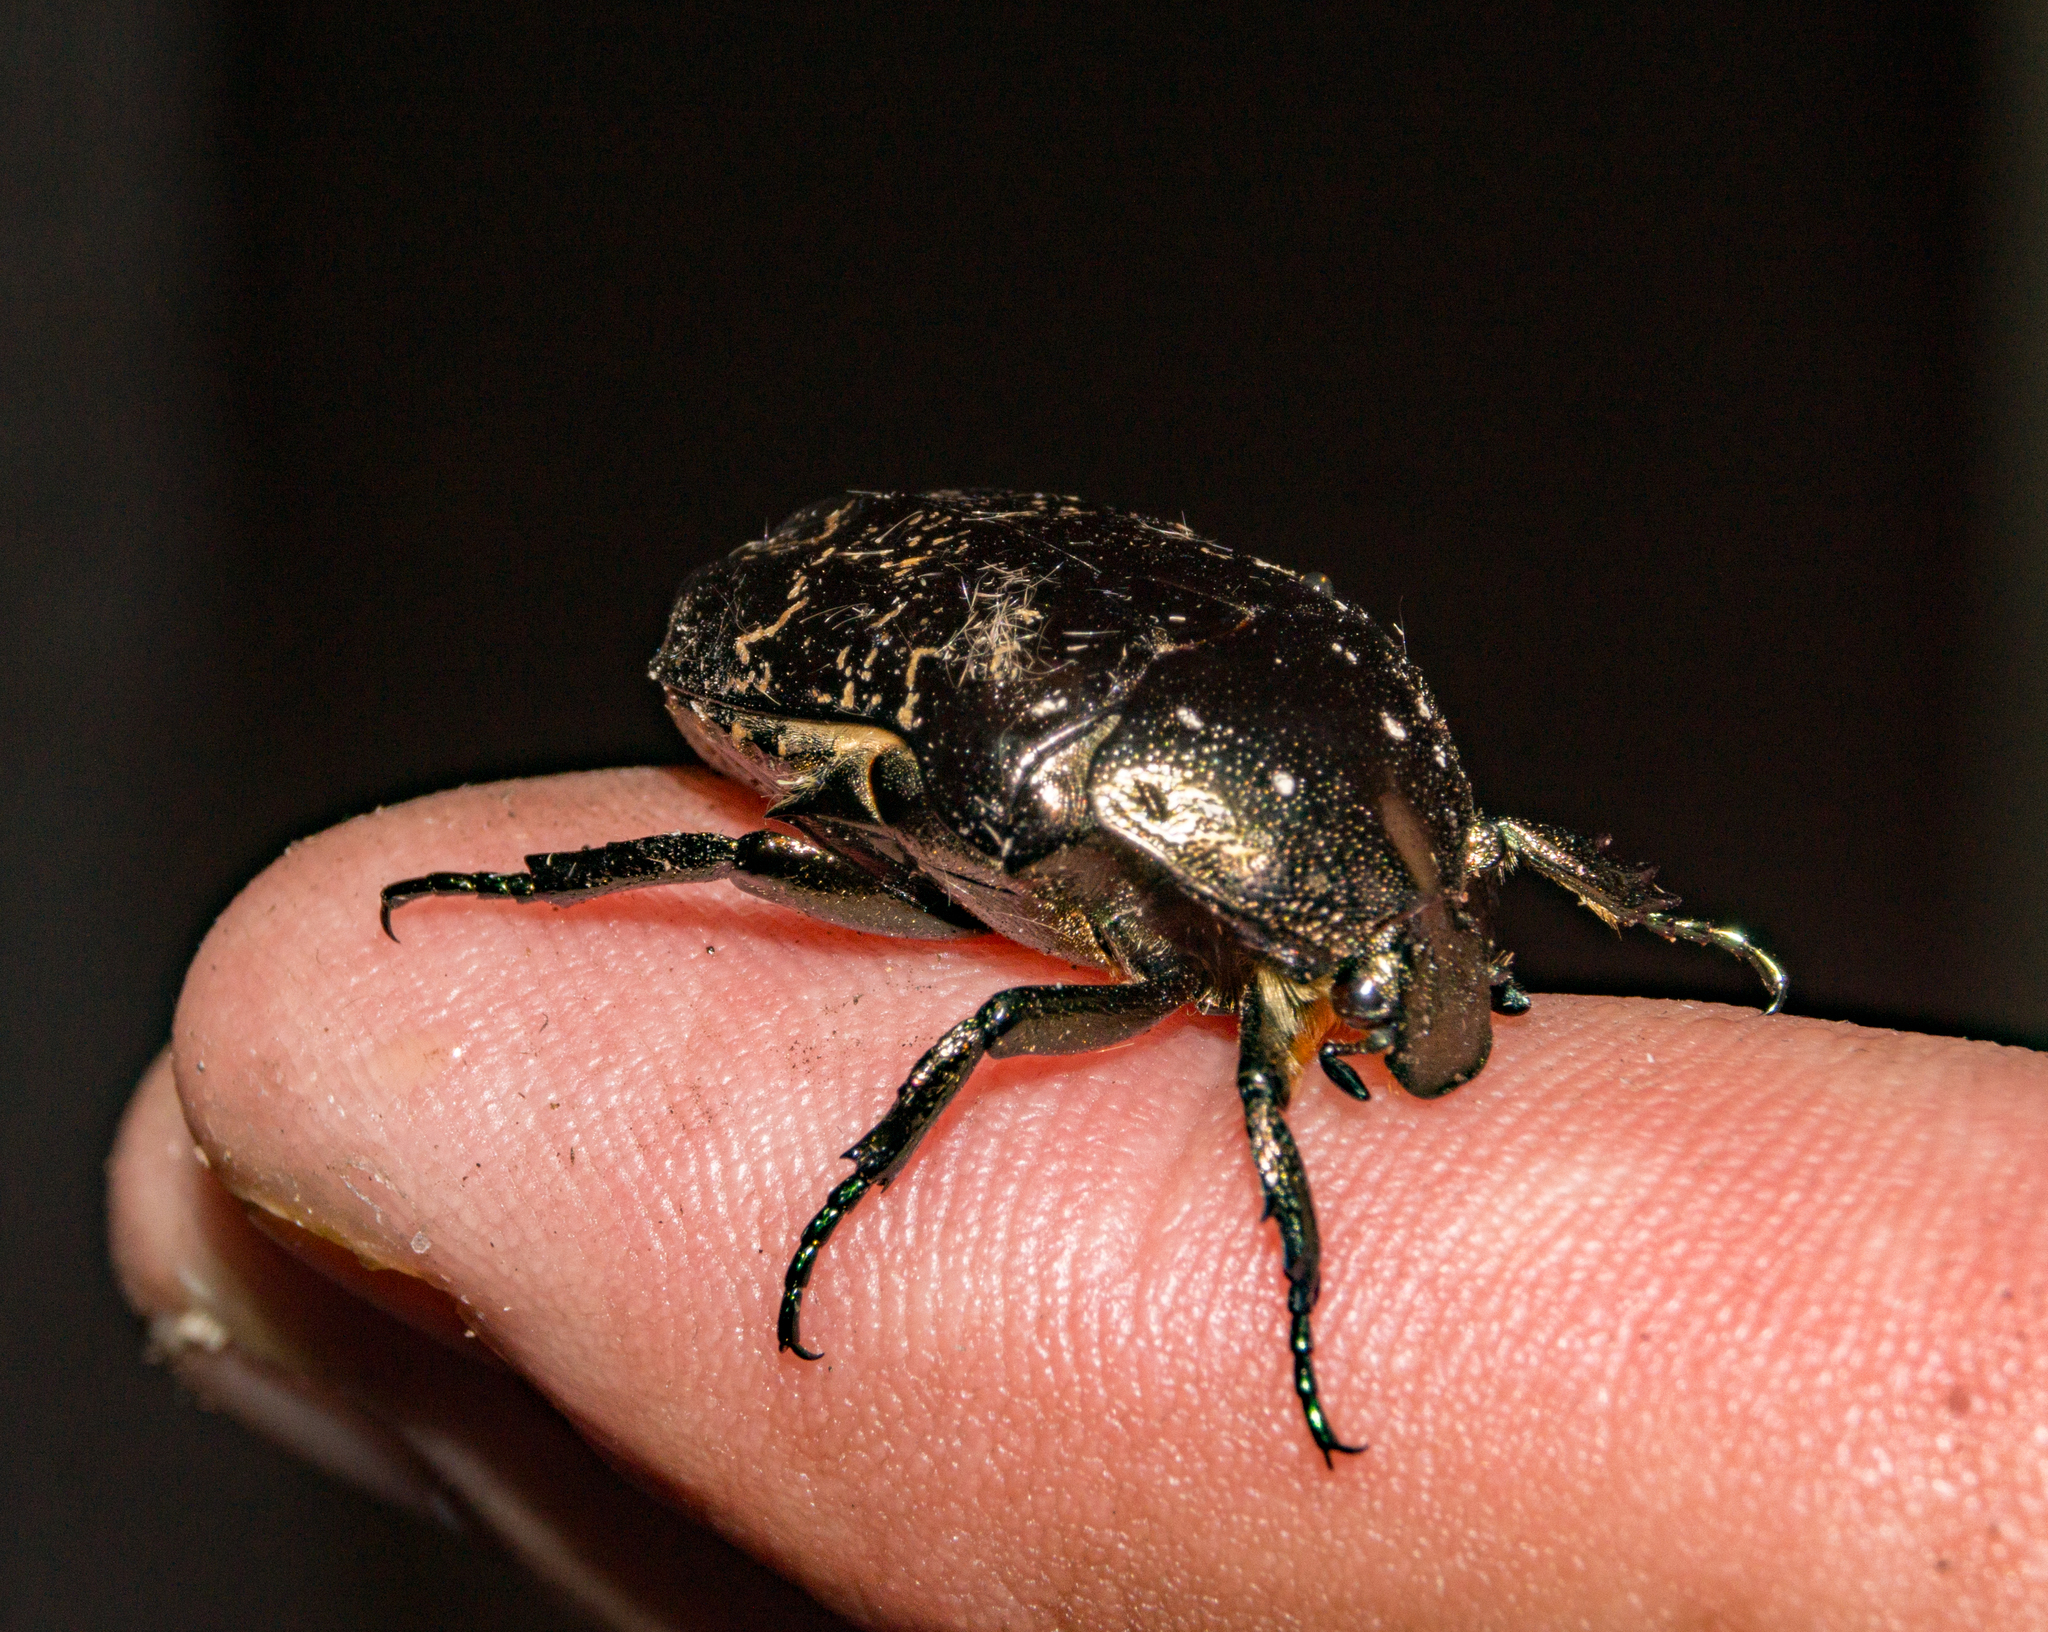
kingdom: Animalia
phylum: Arthropoda
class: Insecta
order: Coleoptera
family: Scarabaeidae
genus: Protaetia
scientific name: Protaetia marmorata
